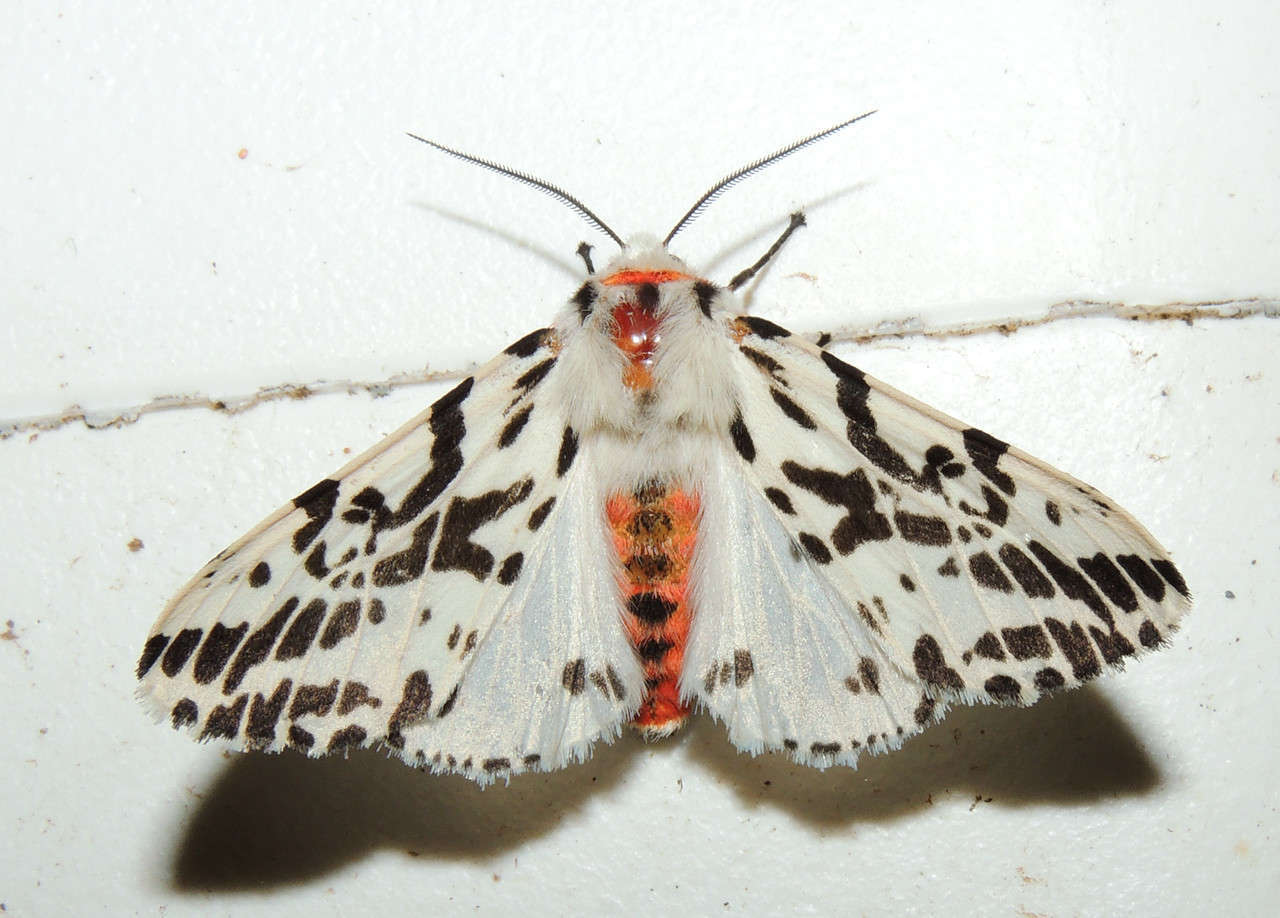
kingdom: Animalia
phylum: Arthropoda
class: Insecta
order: Lepidoptera
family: Erebidae
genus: Ardices
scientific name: Ardices glatignyi
